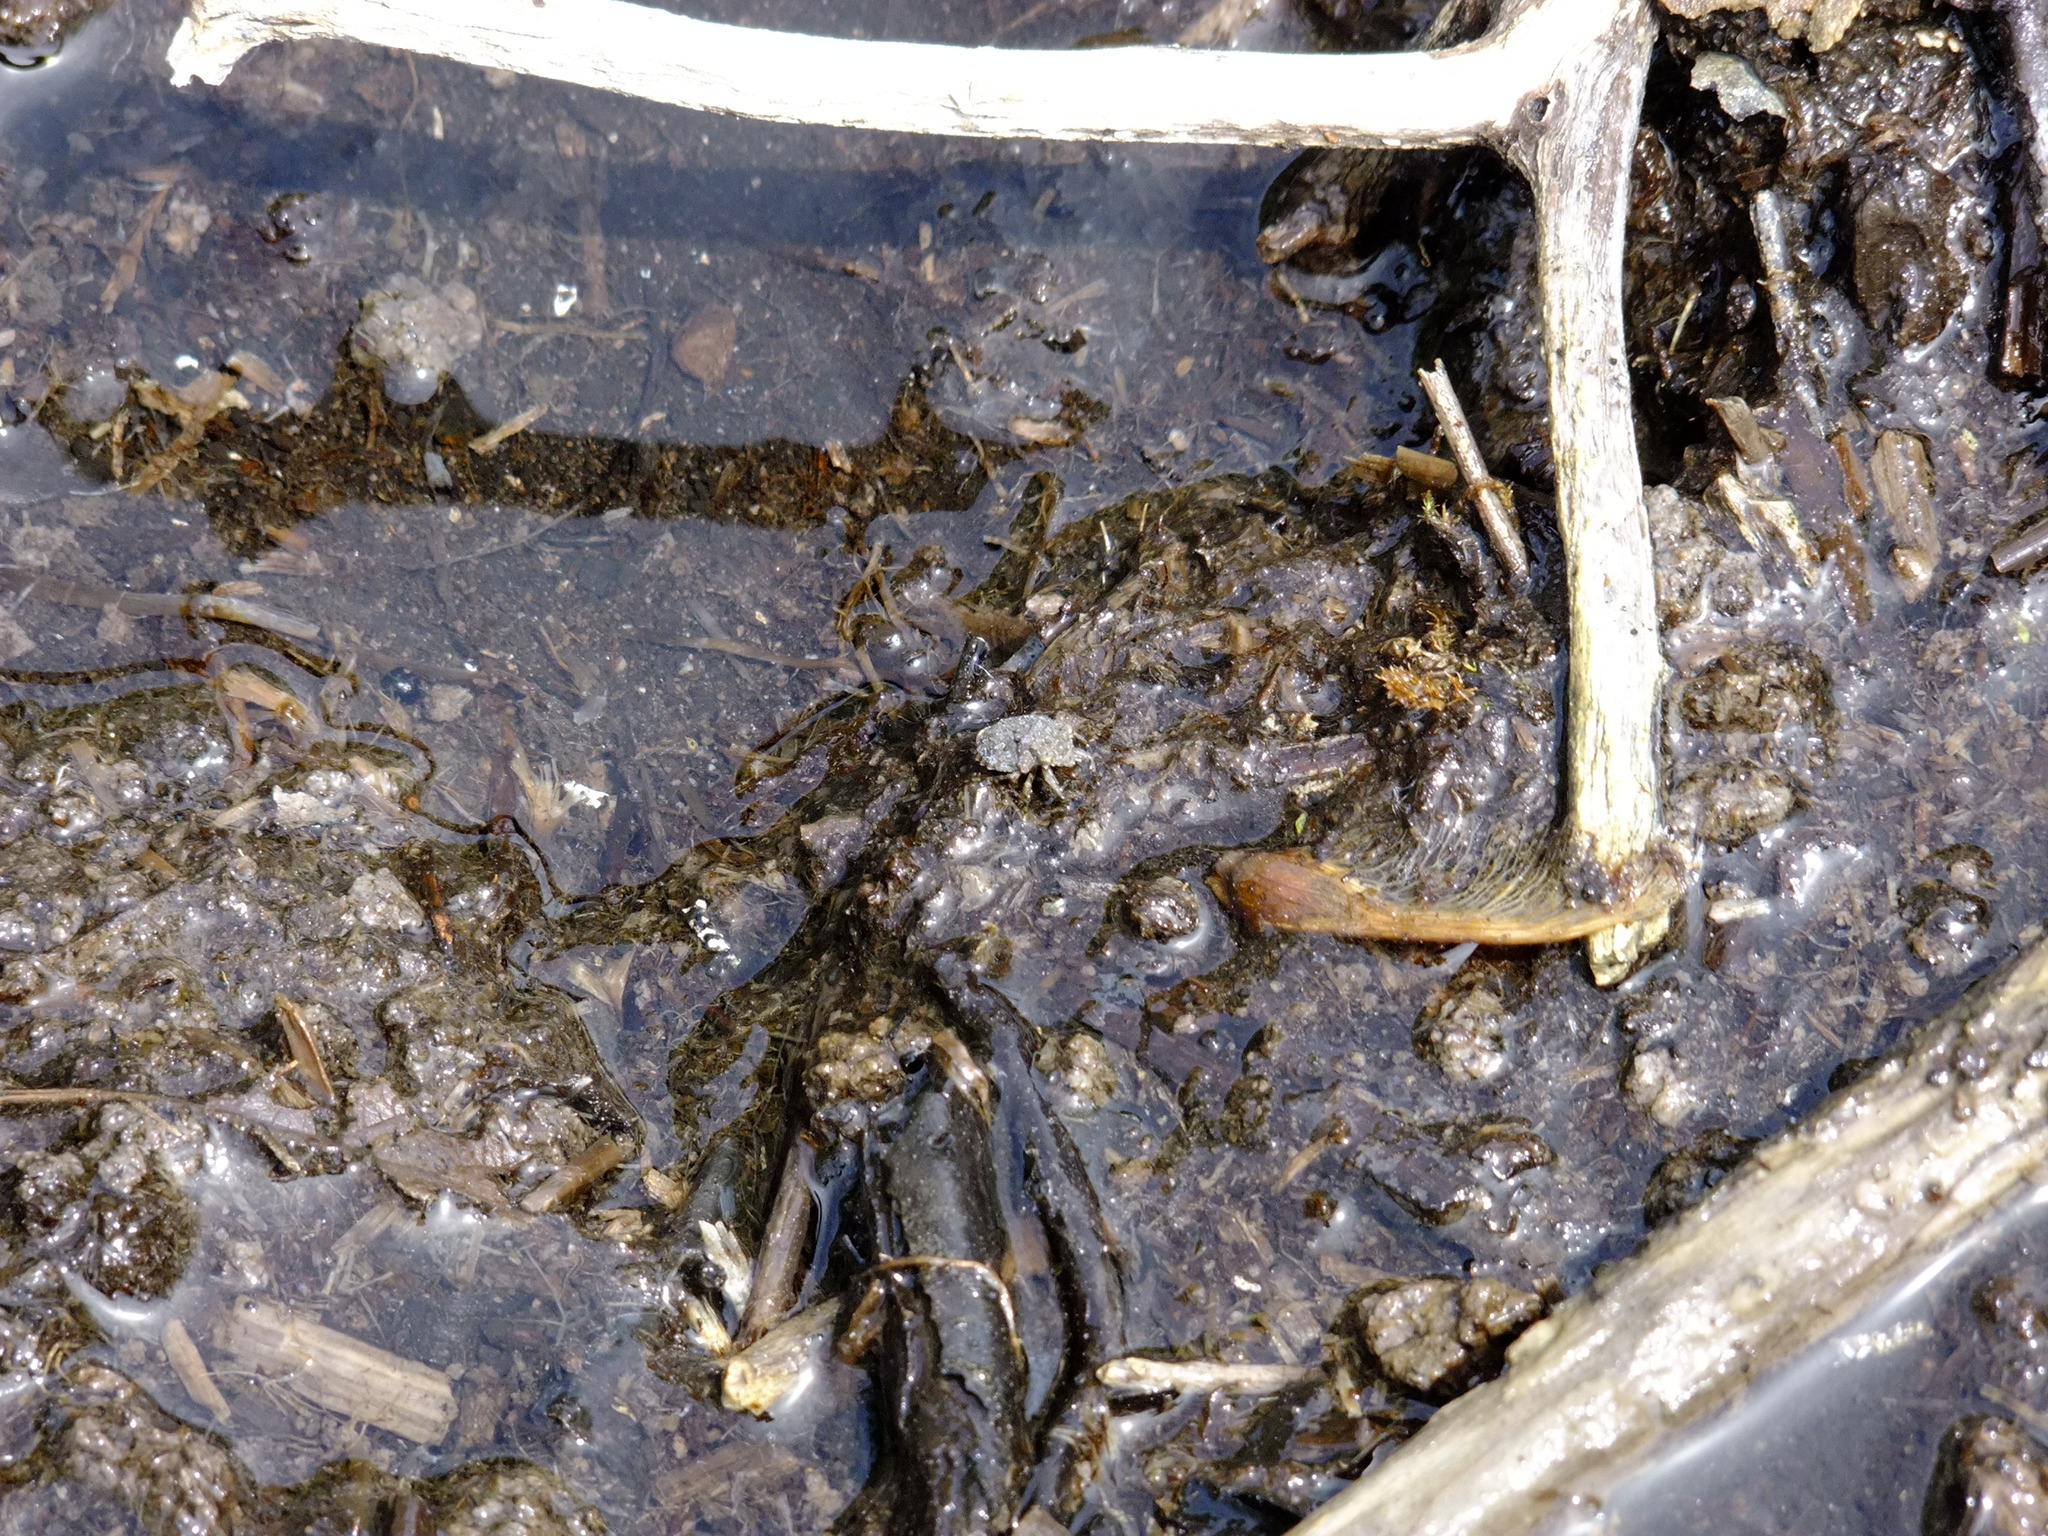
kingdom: Animalia
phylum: Arthropoda
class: Insecta
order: Hemiptera
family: Gelastocoridae
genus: Gelastocoris
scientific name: Gelastocoris oculatus
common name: Toad bug
